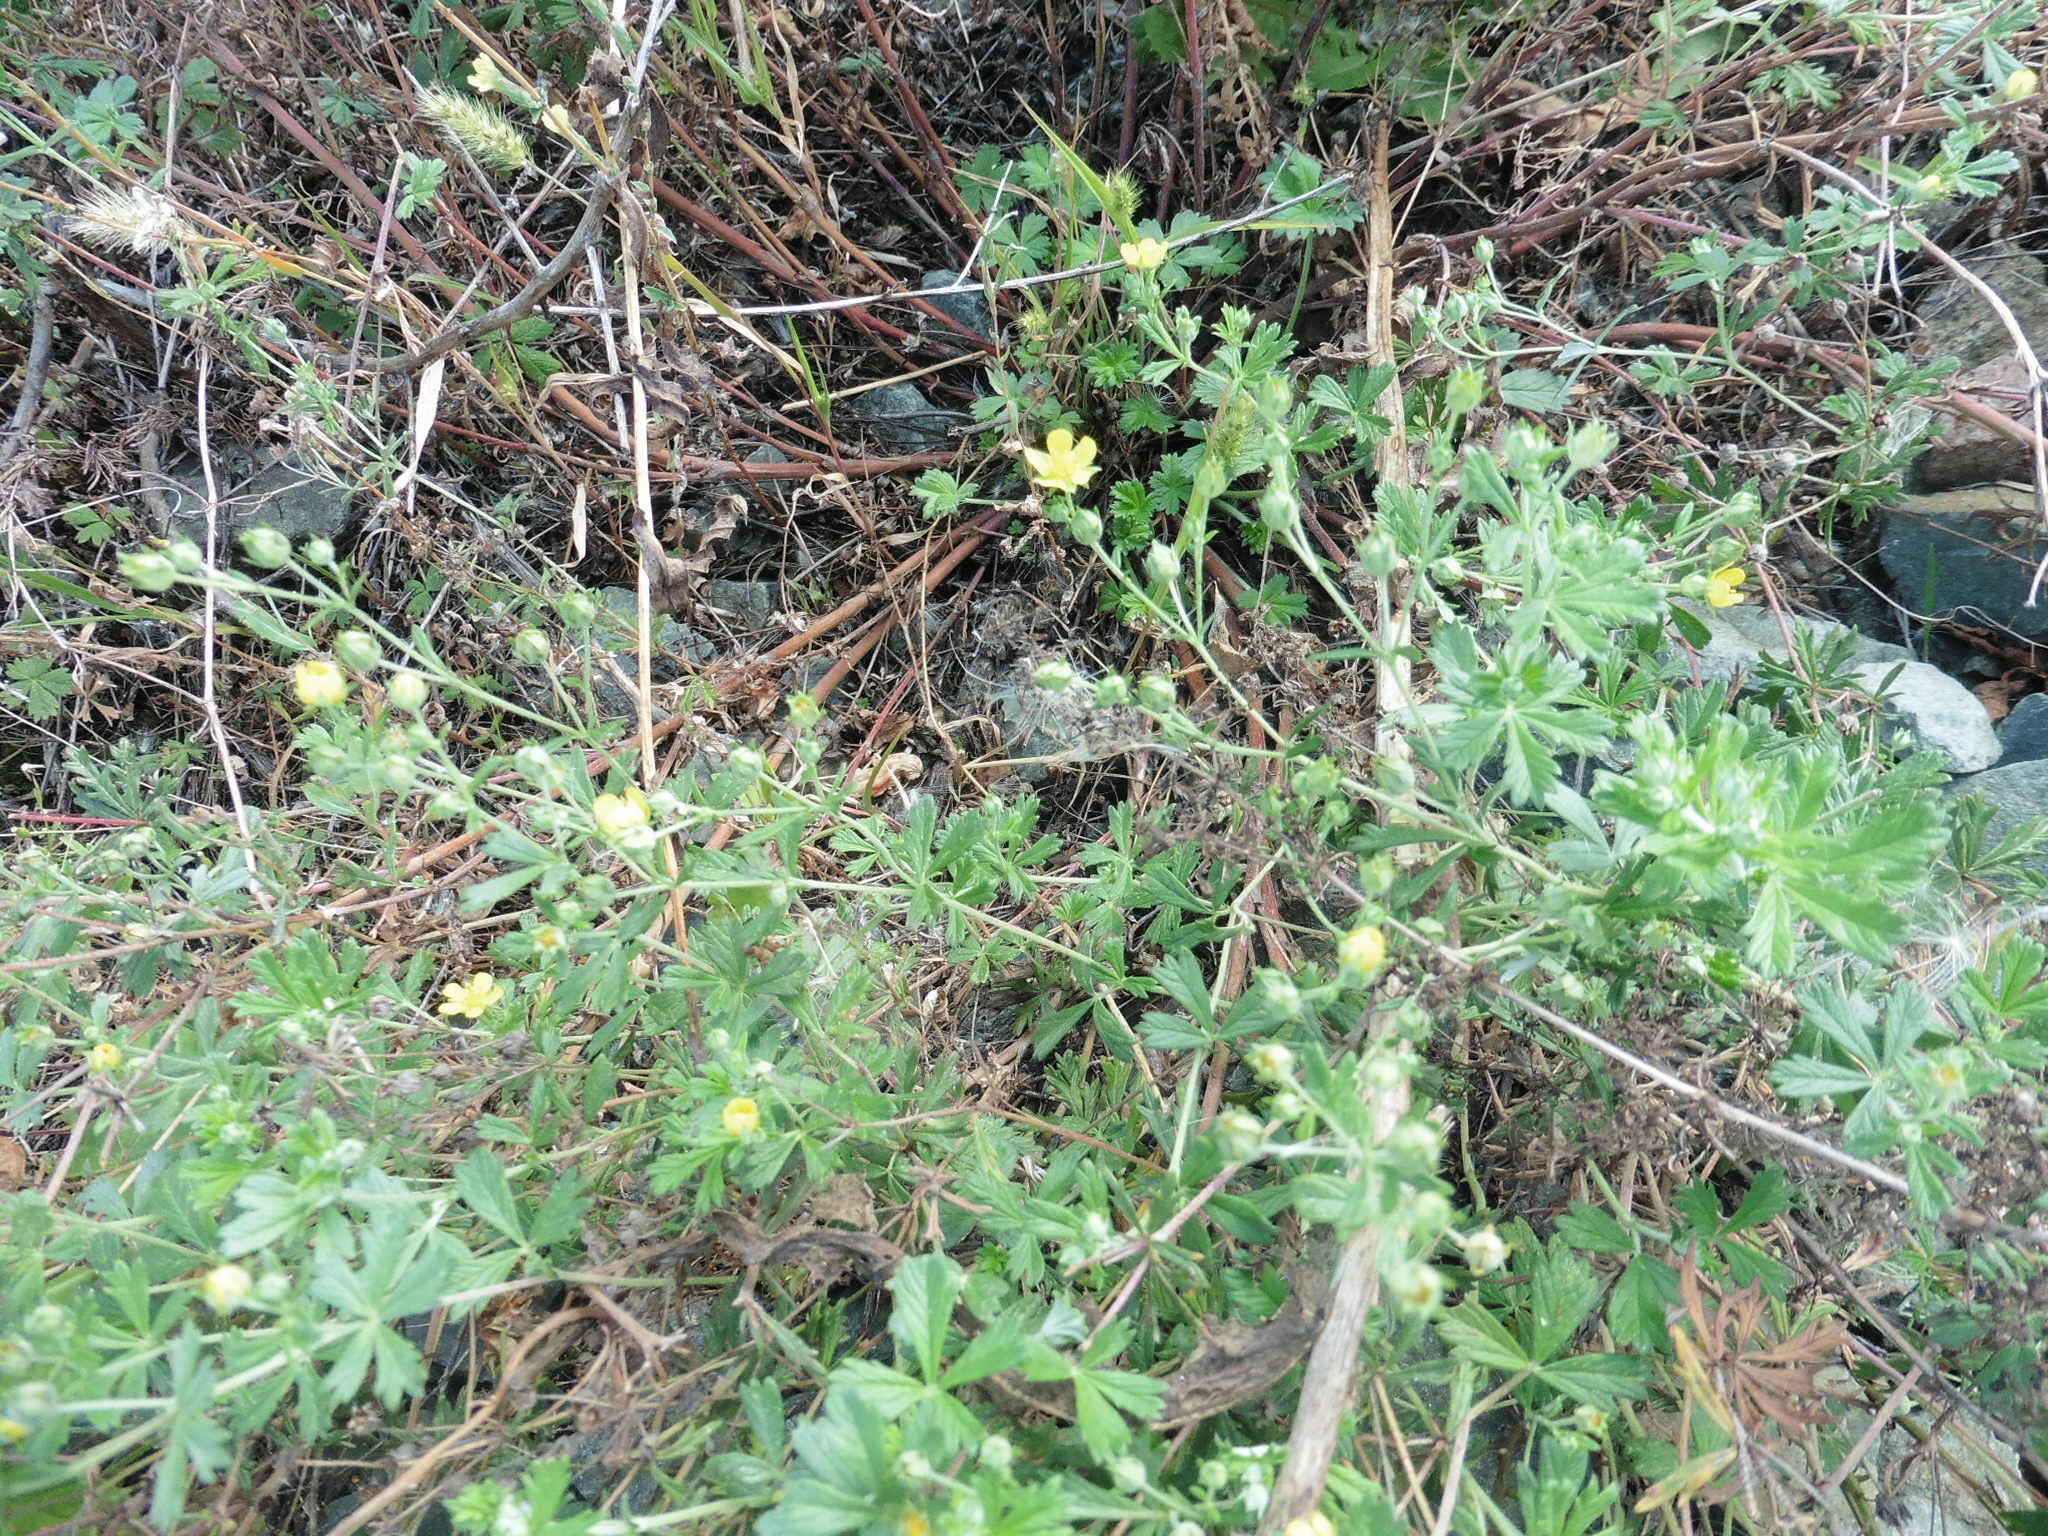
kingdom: Plantae
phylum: Tracheophyta
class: Magnoliopsida
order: Rosales
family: Rosaceae
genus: Potentilla
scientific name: Potentilla argentea
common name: Hoary cinquefoil
